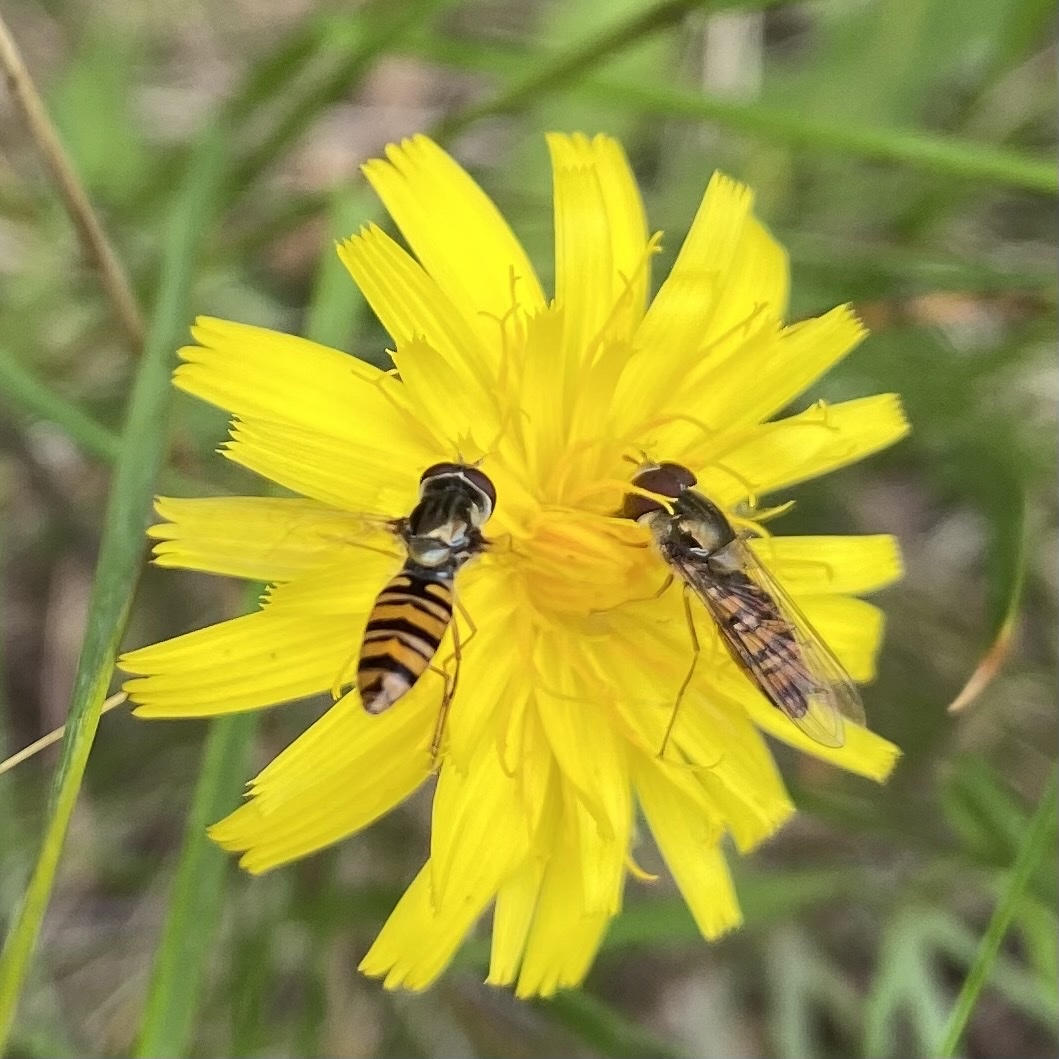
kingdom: Animalia
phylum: Arthropoda
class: Insecta
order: Diptera
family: Syrphidae
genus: Episyrphus
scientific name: Episyrphus balteatus
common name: Marmalade hoverfly
